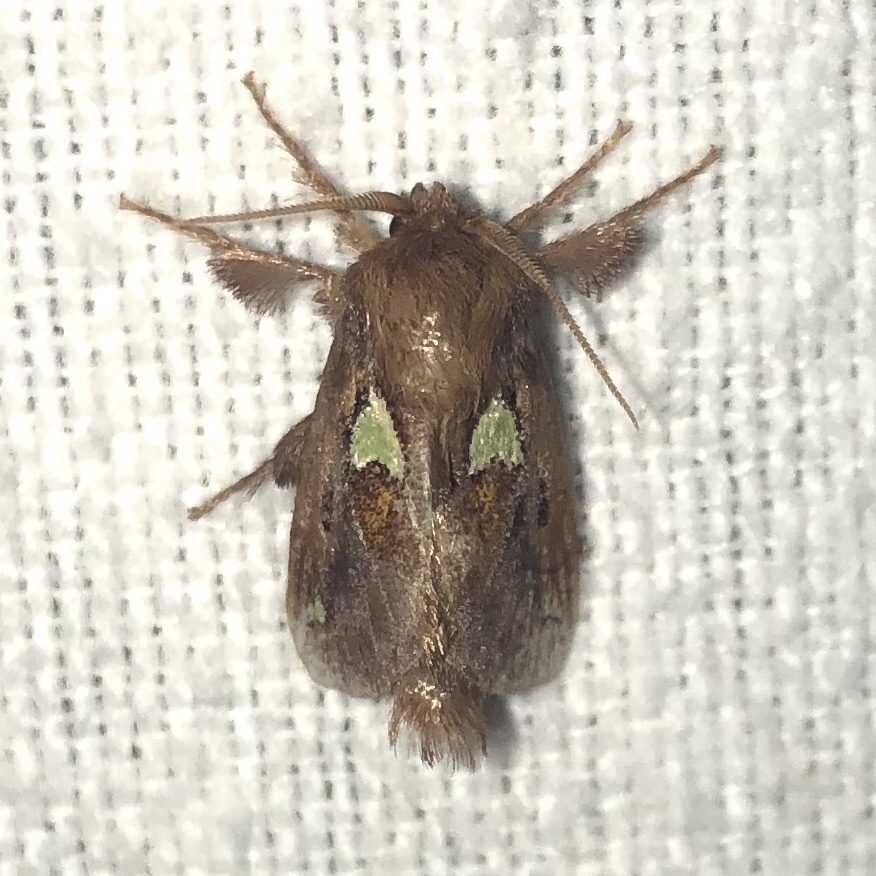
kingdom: Animalia
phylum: Arthropoda
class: Insecta
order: Lepidoptera
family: Limacodidae
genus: Euclea
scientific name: Euclea delphinii
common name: Spiny oak-slug moth
